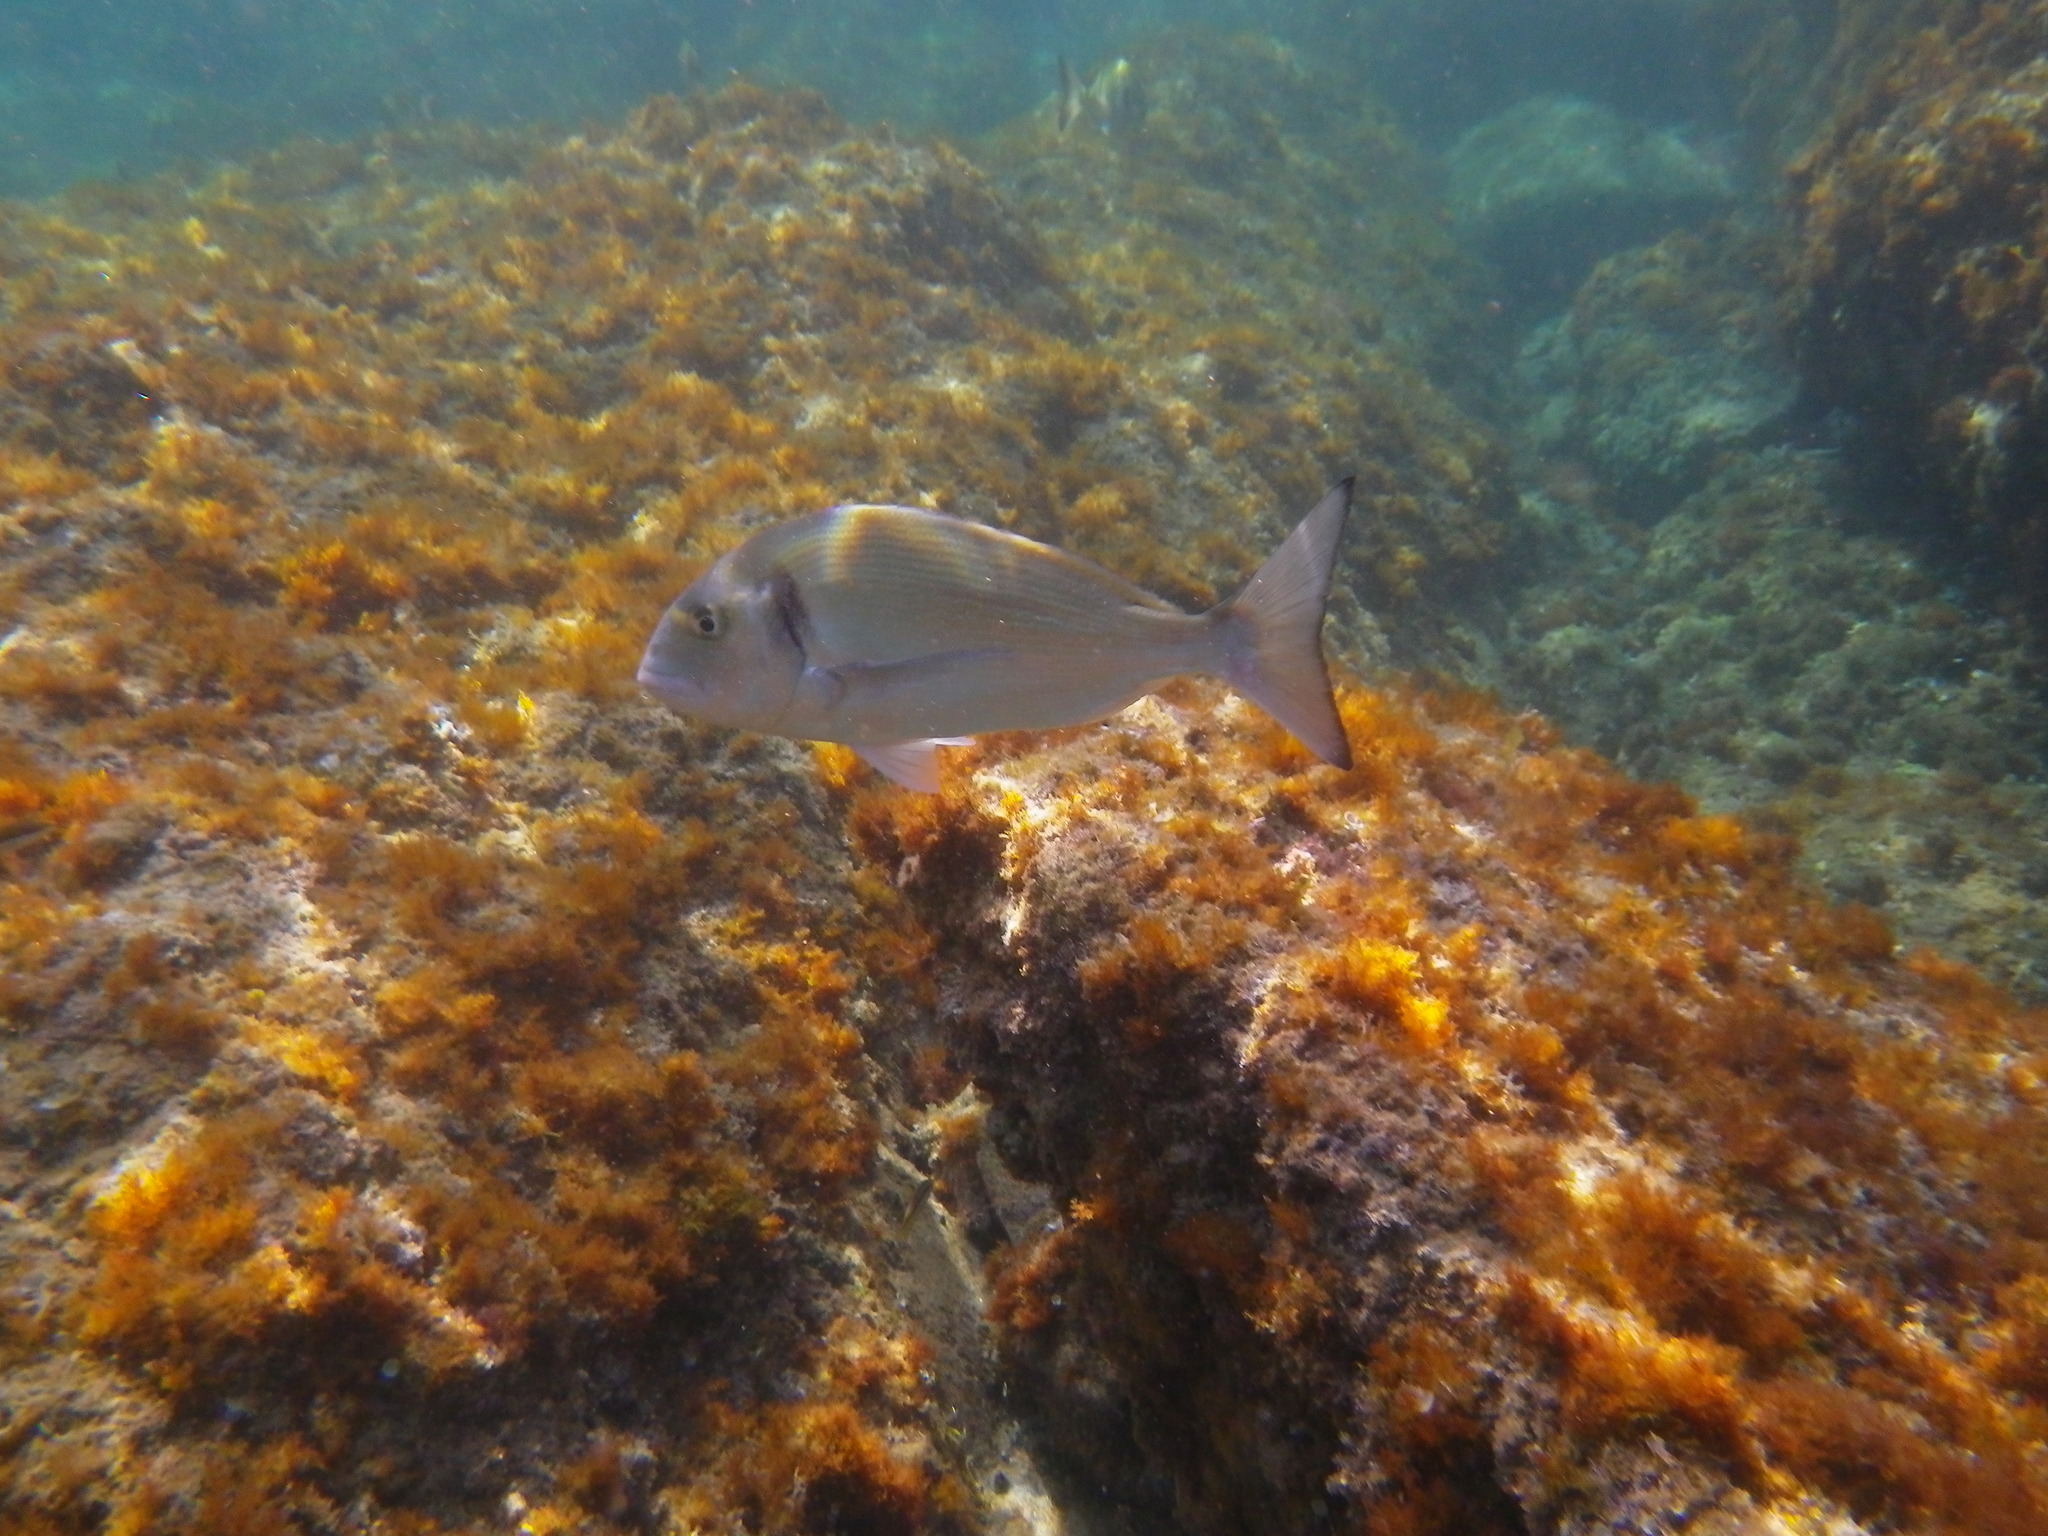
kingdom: Animalia
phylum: Chordata
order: Perciformes
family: Sparidae
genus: Sparus
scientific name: Sparus aurata
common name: Gilthead
